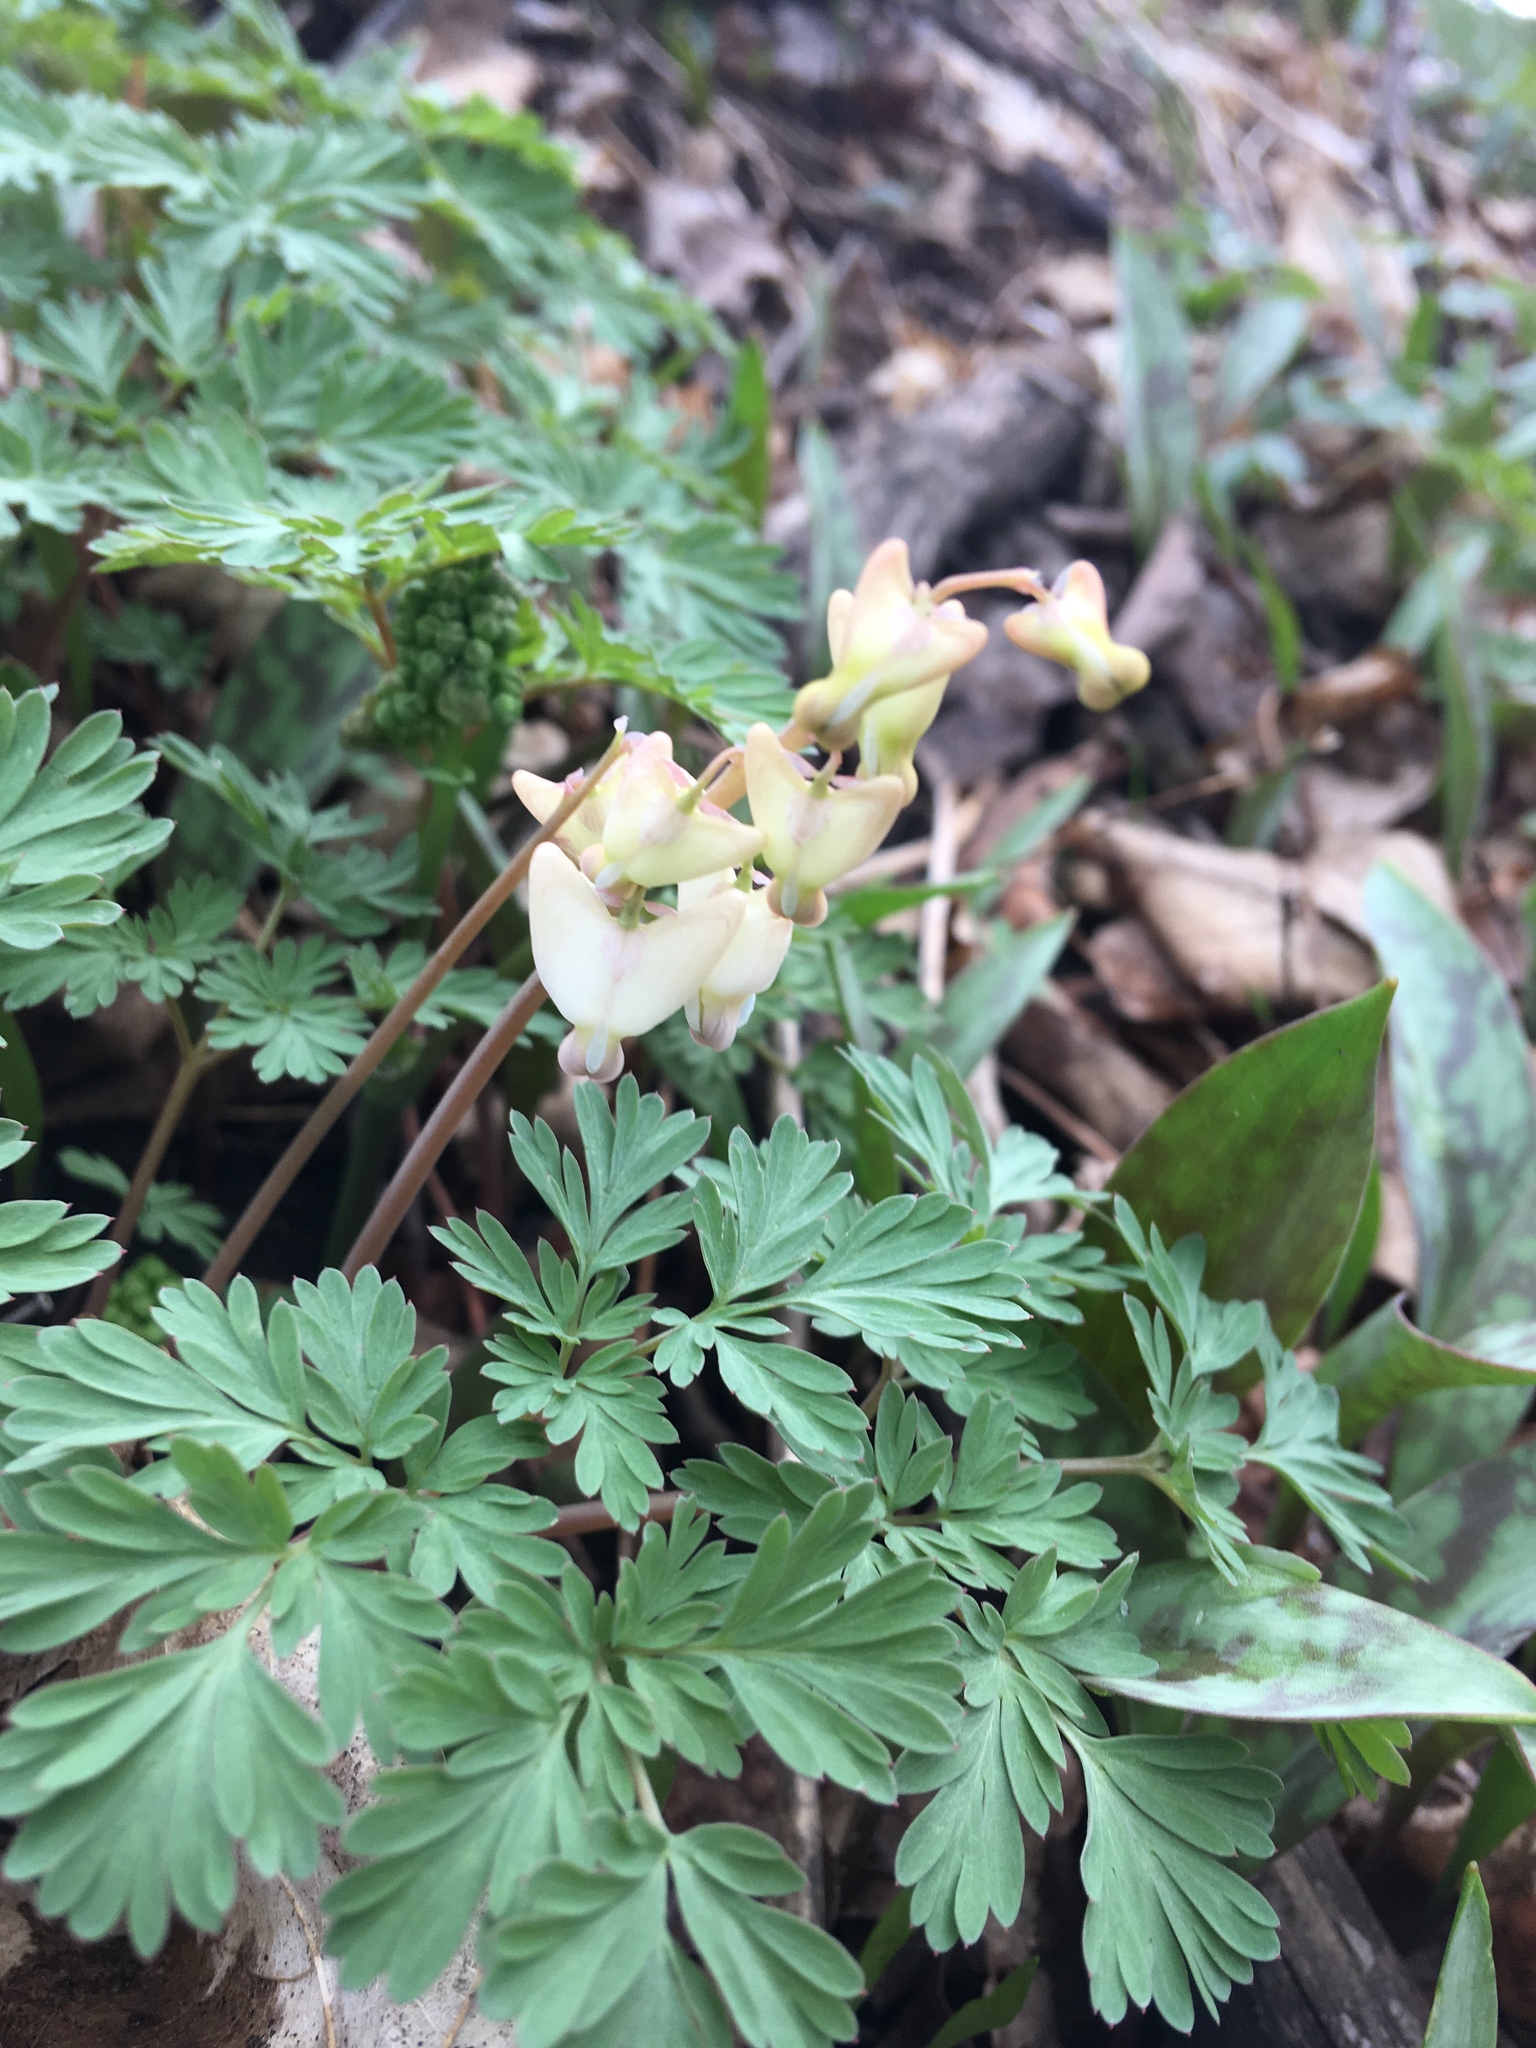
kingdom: Plantae
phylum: Tracheophyta
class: Magnoliopsida
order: Ranunculales
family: Papaveraceae
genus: Dicentra
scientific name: Dicentra cucullaria
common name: Dutchman's breeches
